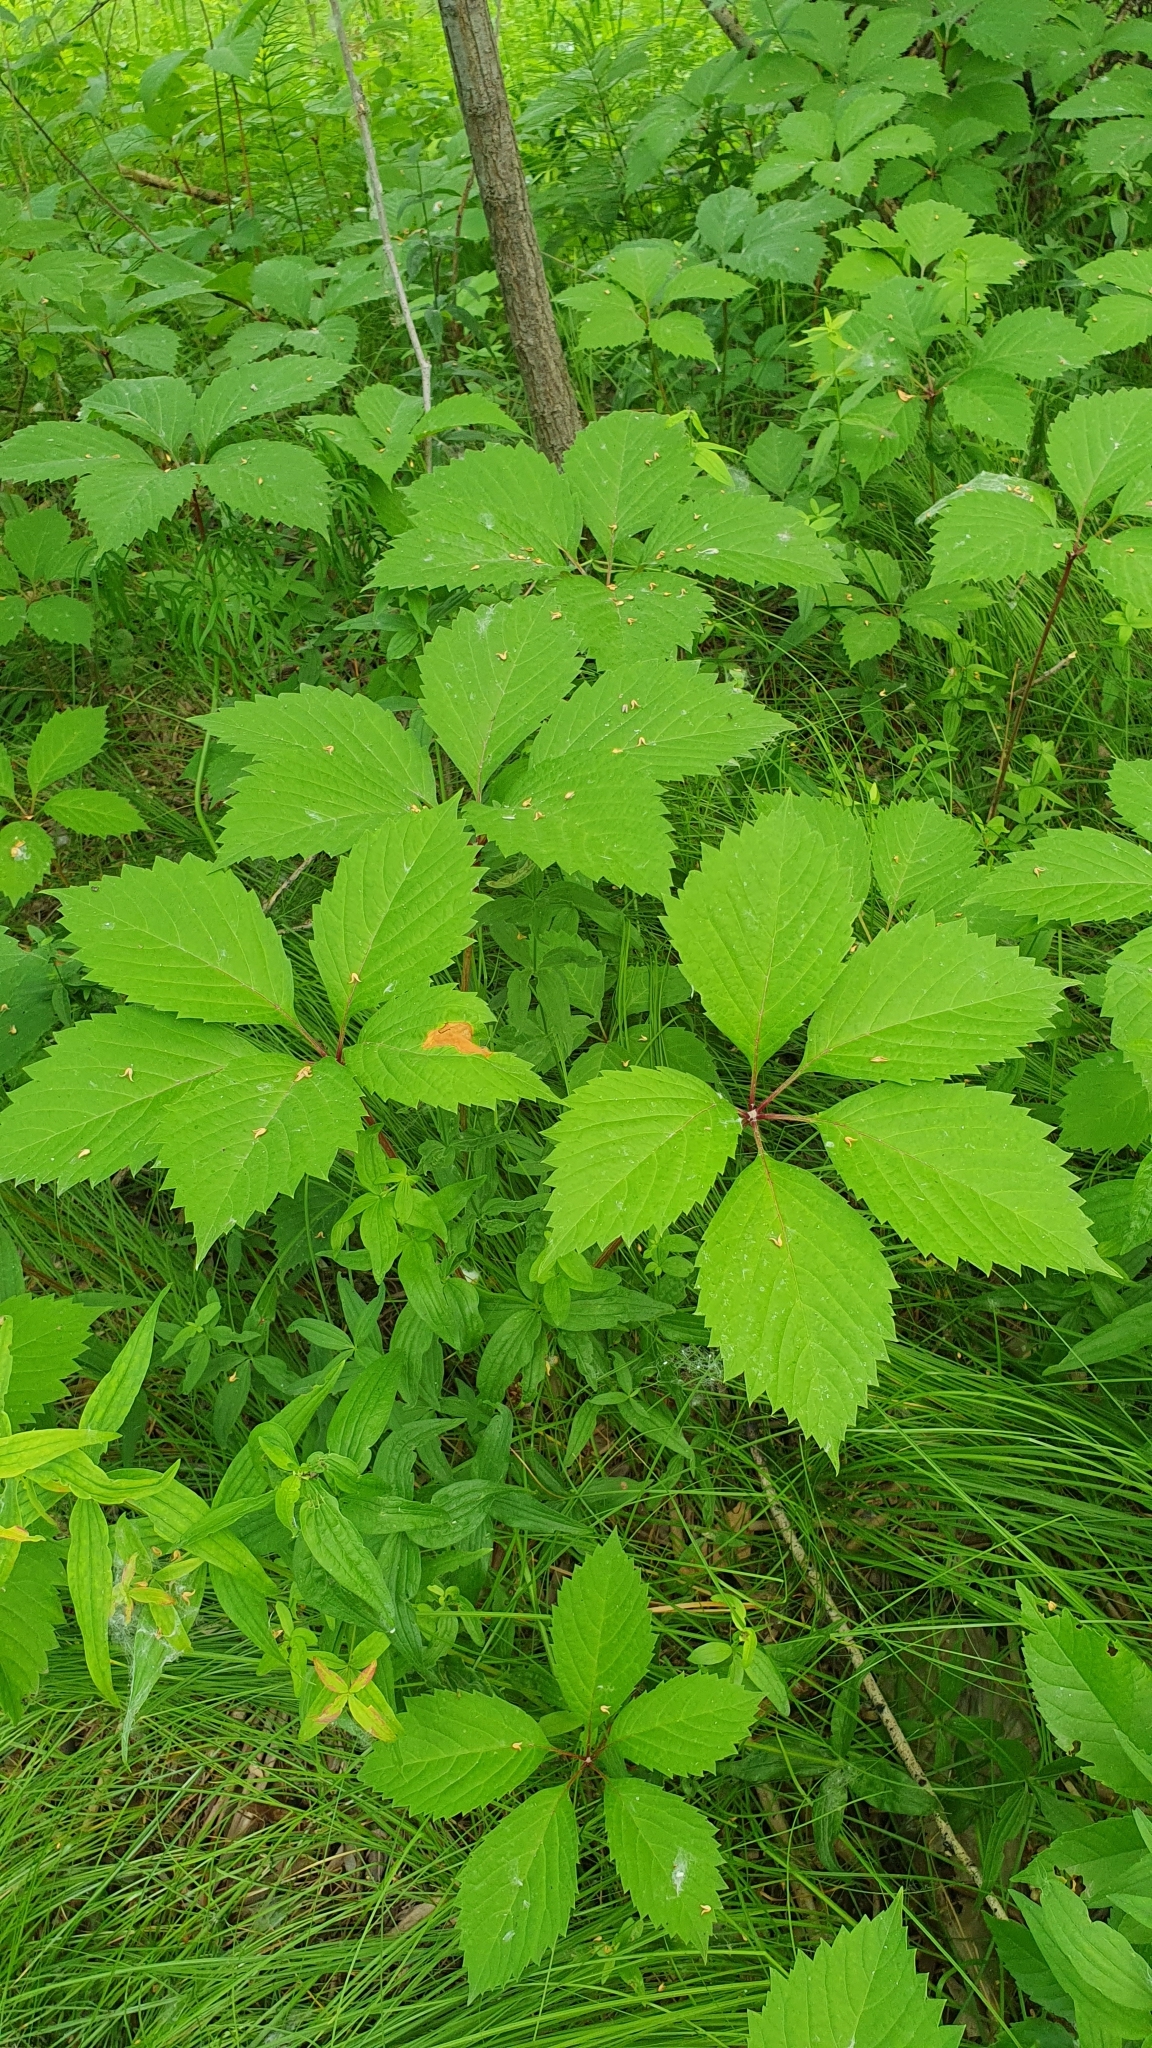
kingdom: Plantae
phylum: Tracheophyta
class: Magnoliopsida
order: Vitales
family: Vitaceae
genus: Parthenocissus
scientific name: Parthenocissus inserta
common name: False virginia-creeper
